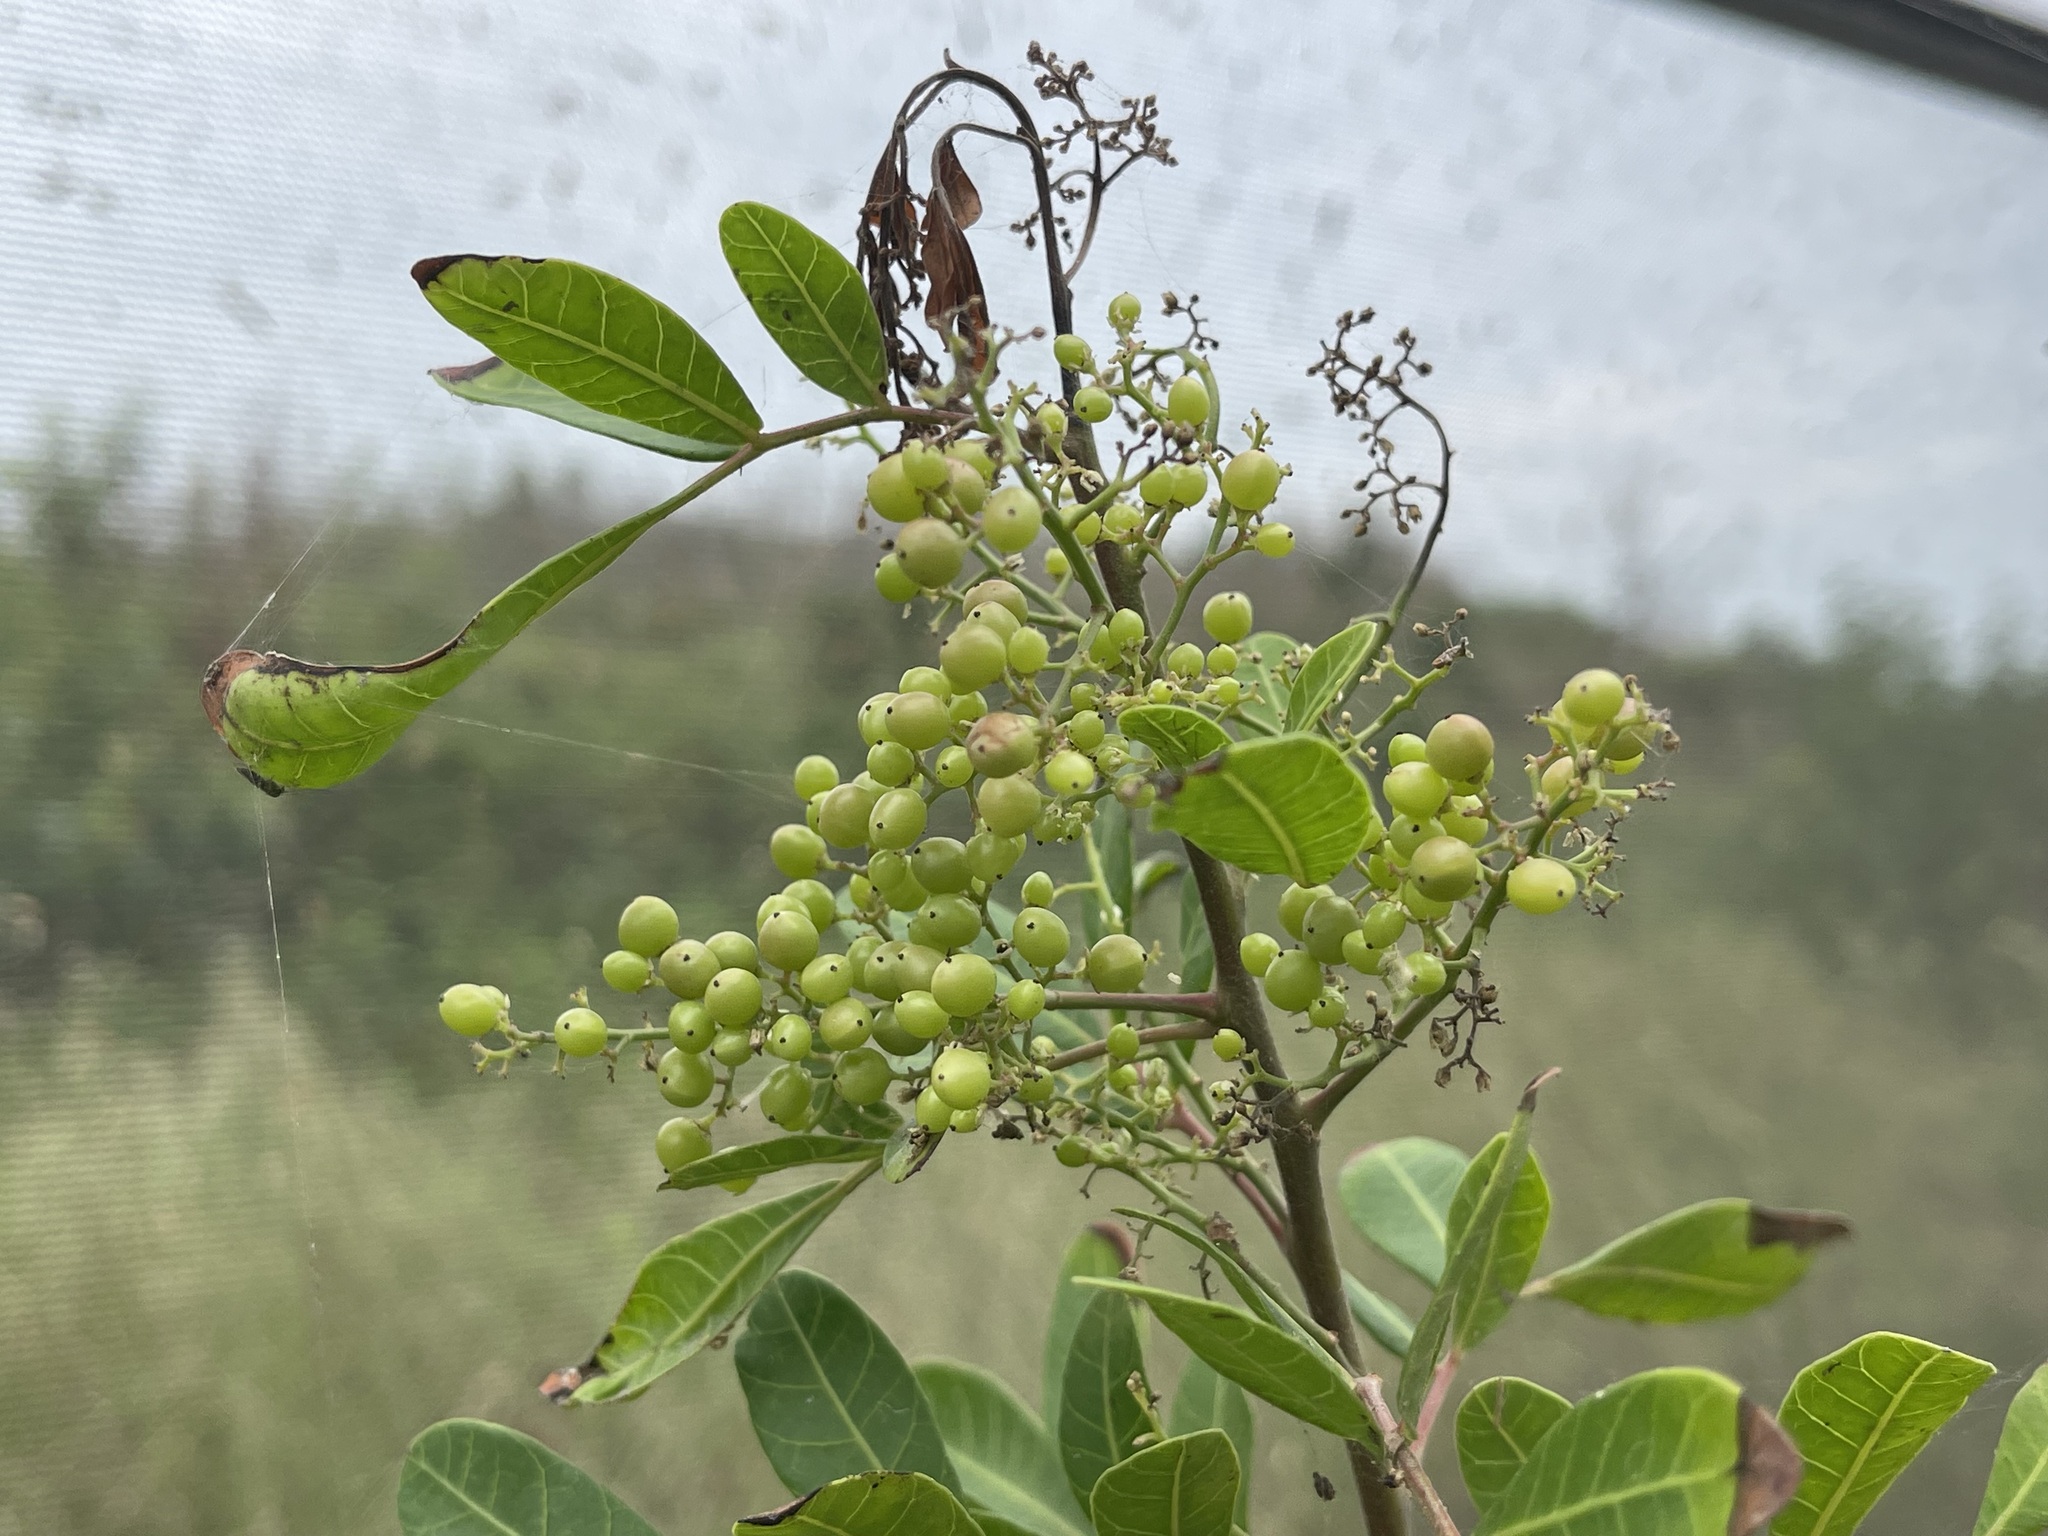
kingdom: Plantae
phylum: Tracheophyta
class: Magnoliopsida
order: Sapindales
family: Anacardiaceae
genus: Schinus
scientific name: Schinus terebinthifolia
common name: Brazilian peppertree
